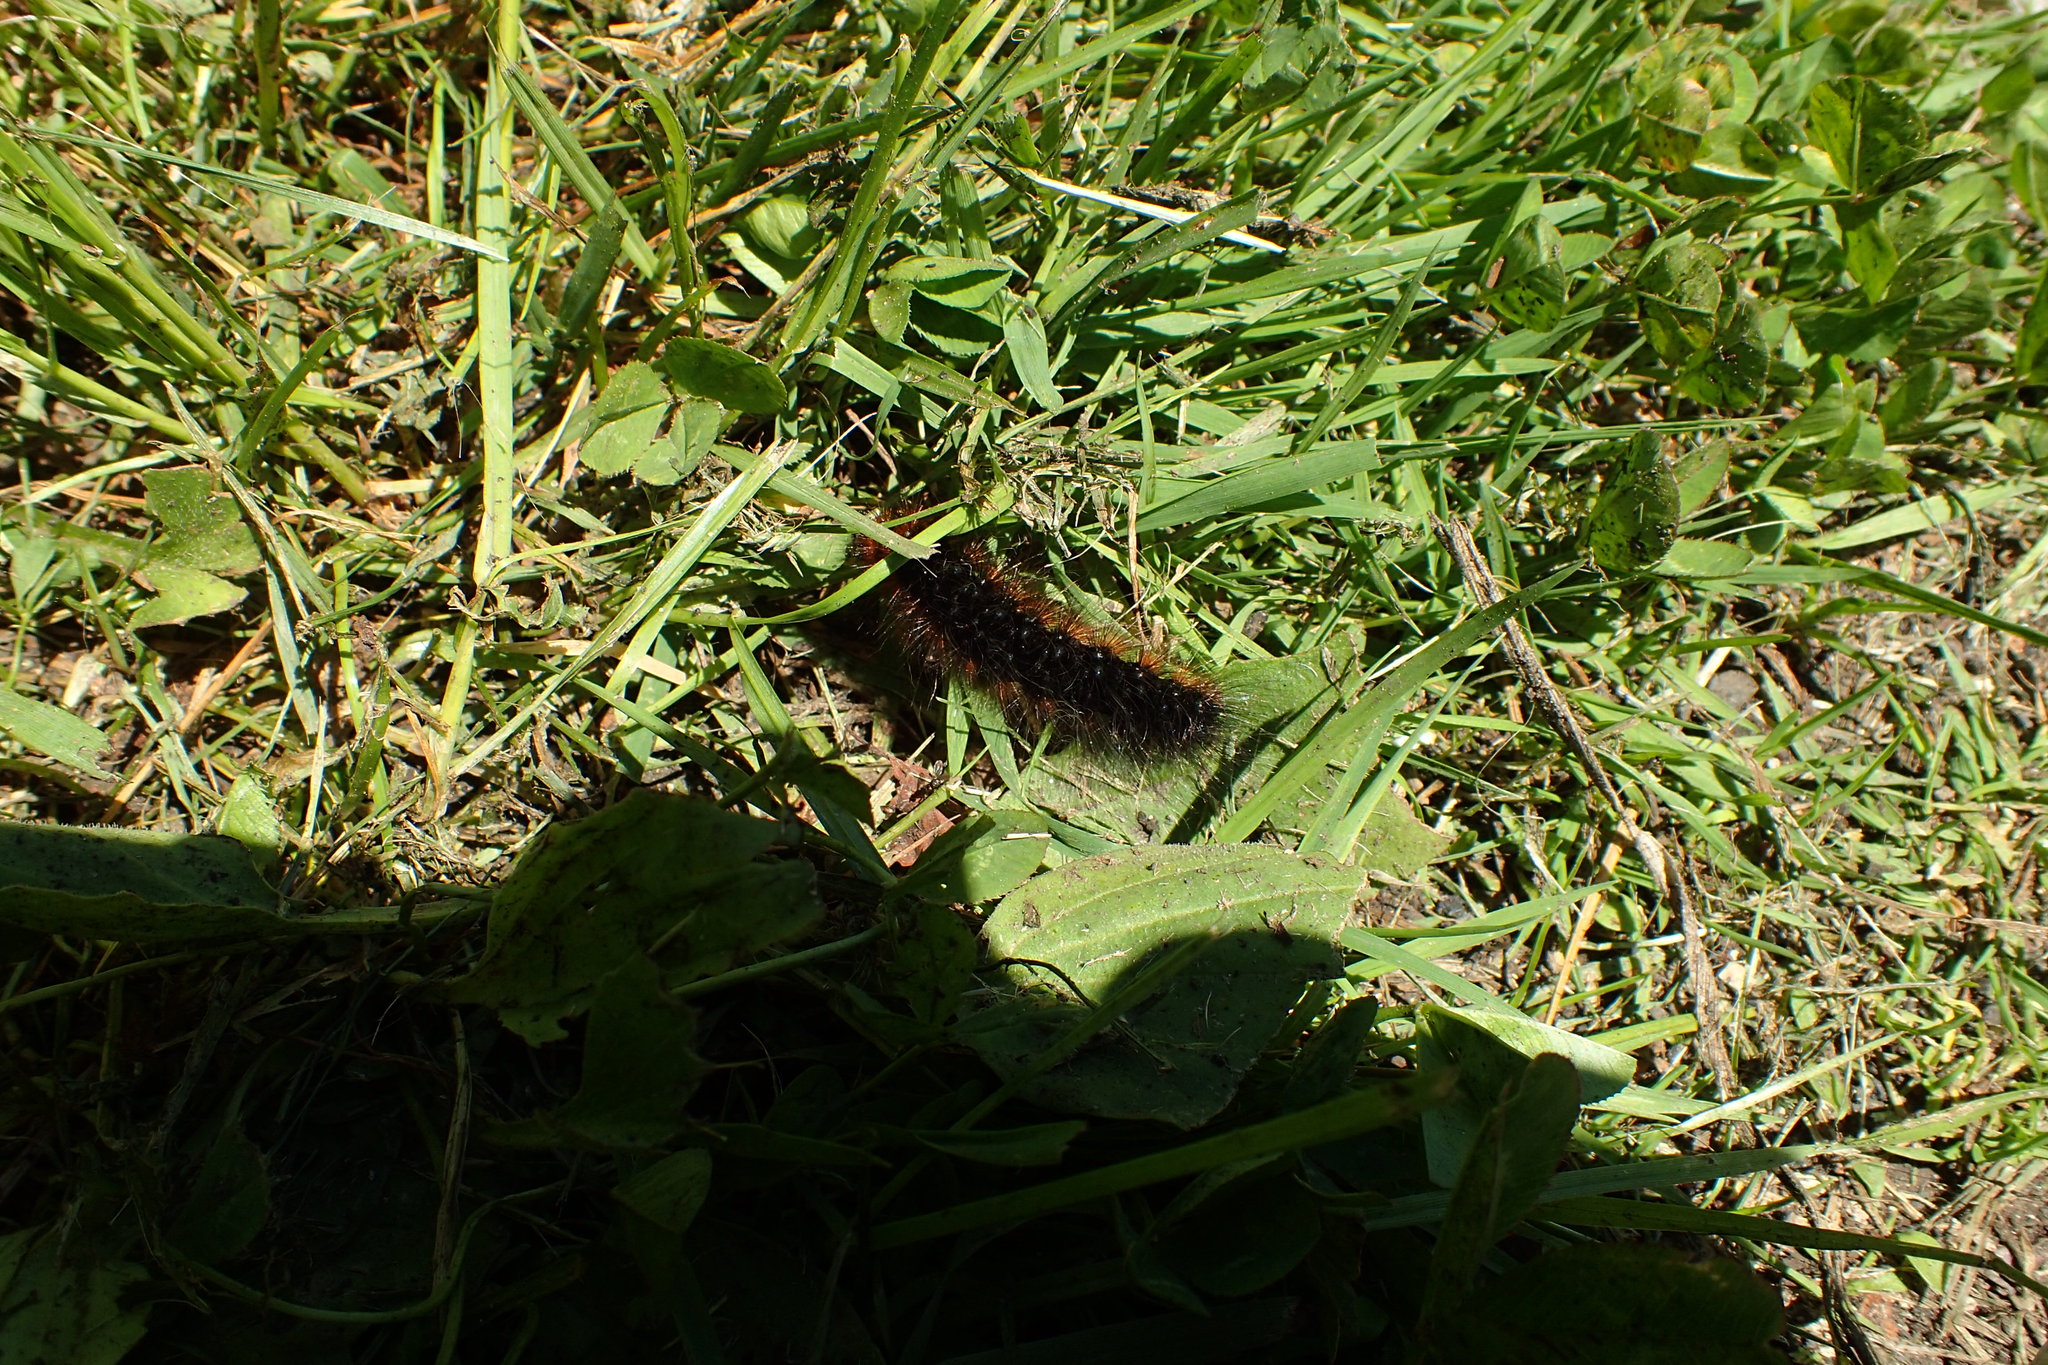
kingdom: Animalia
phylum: Arthropoda
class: Insecta
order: Lepidoptera
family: Erebidae
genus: Arctia
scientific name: Arctia caja
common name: Garden tiger
